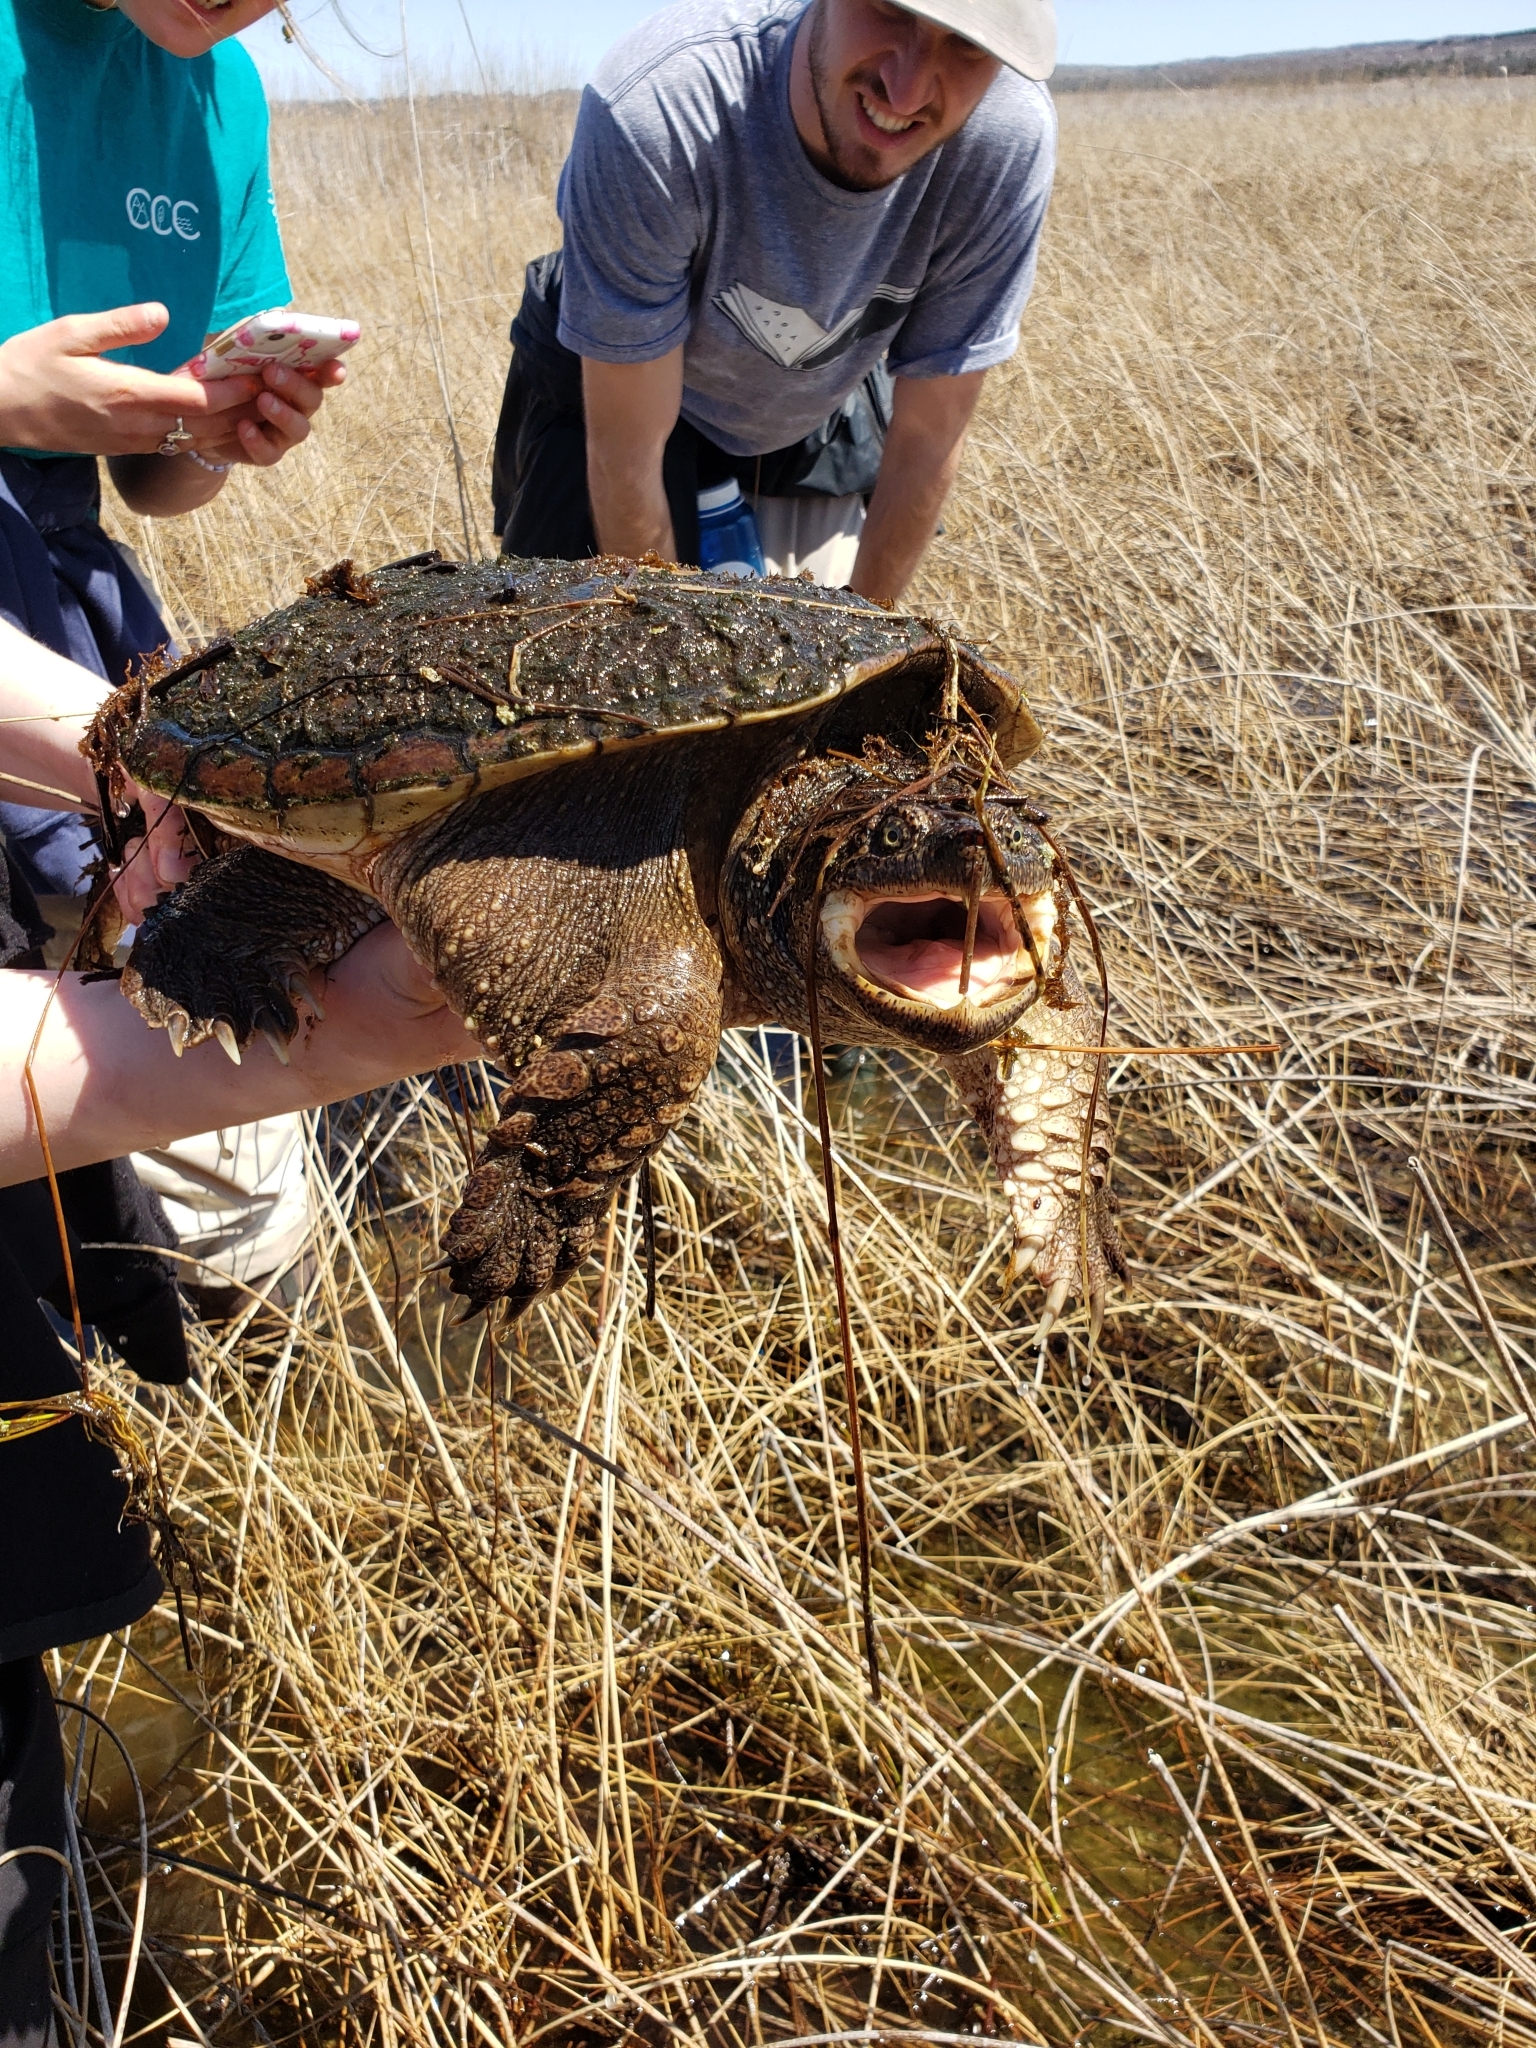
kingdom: Animalia
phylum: Chordata
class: Testudines
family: Chelydridae
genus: Chelydra
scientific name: Chelydra serpentina
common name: Common snapping turtle
